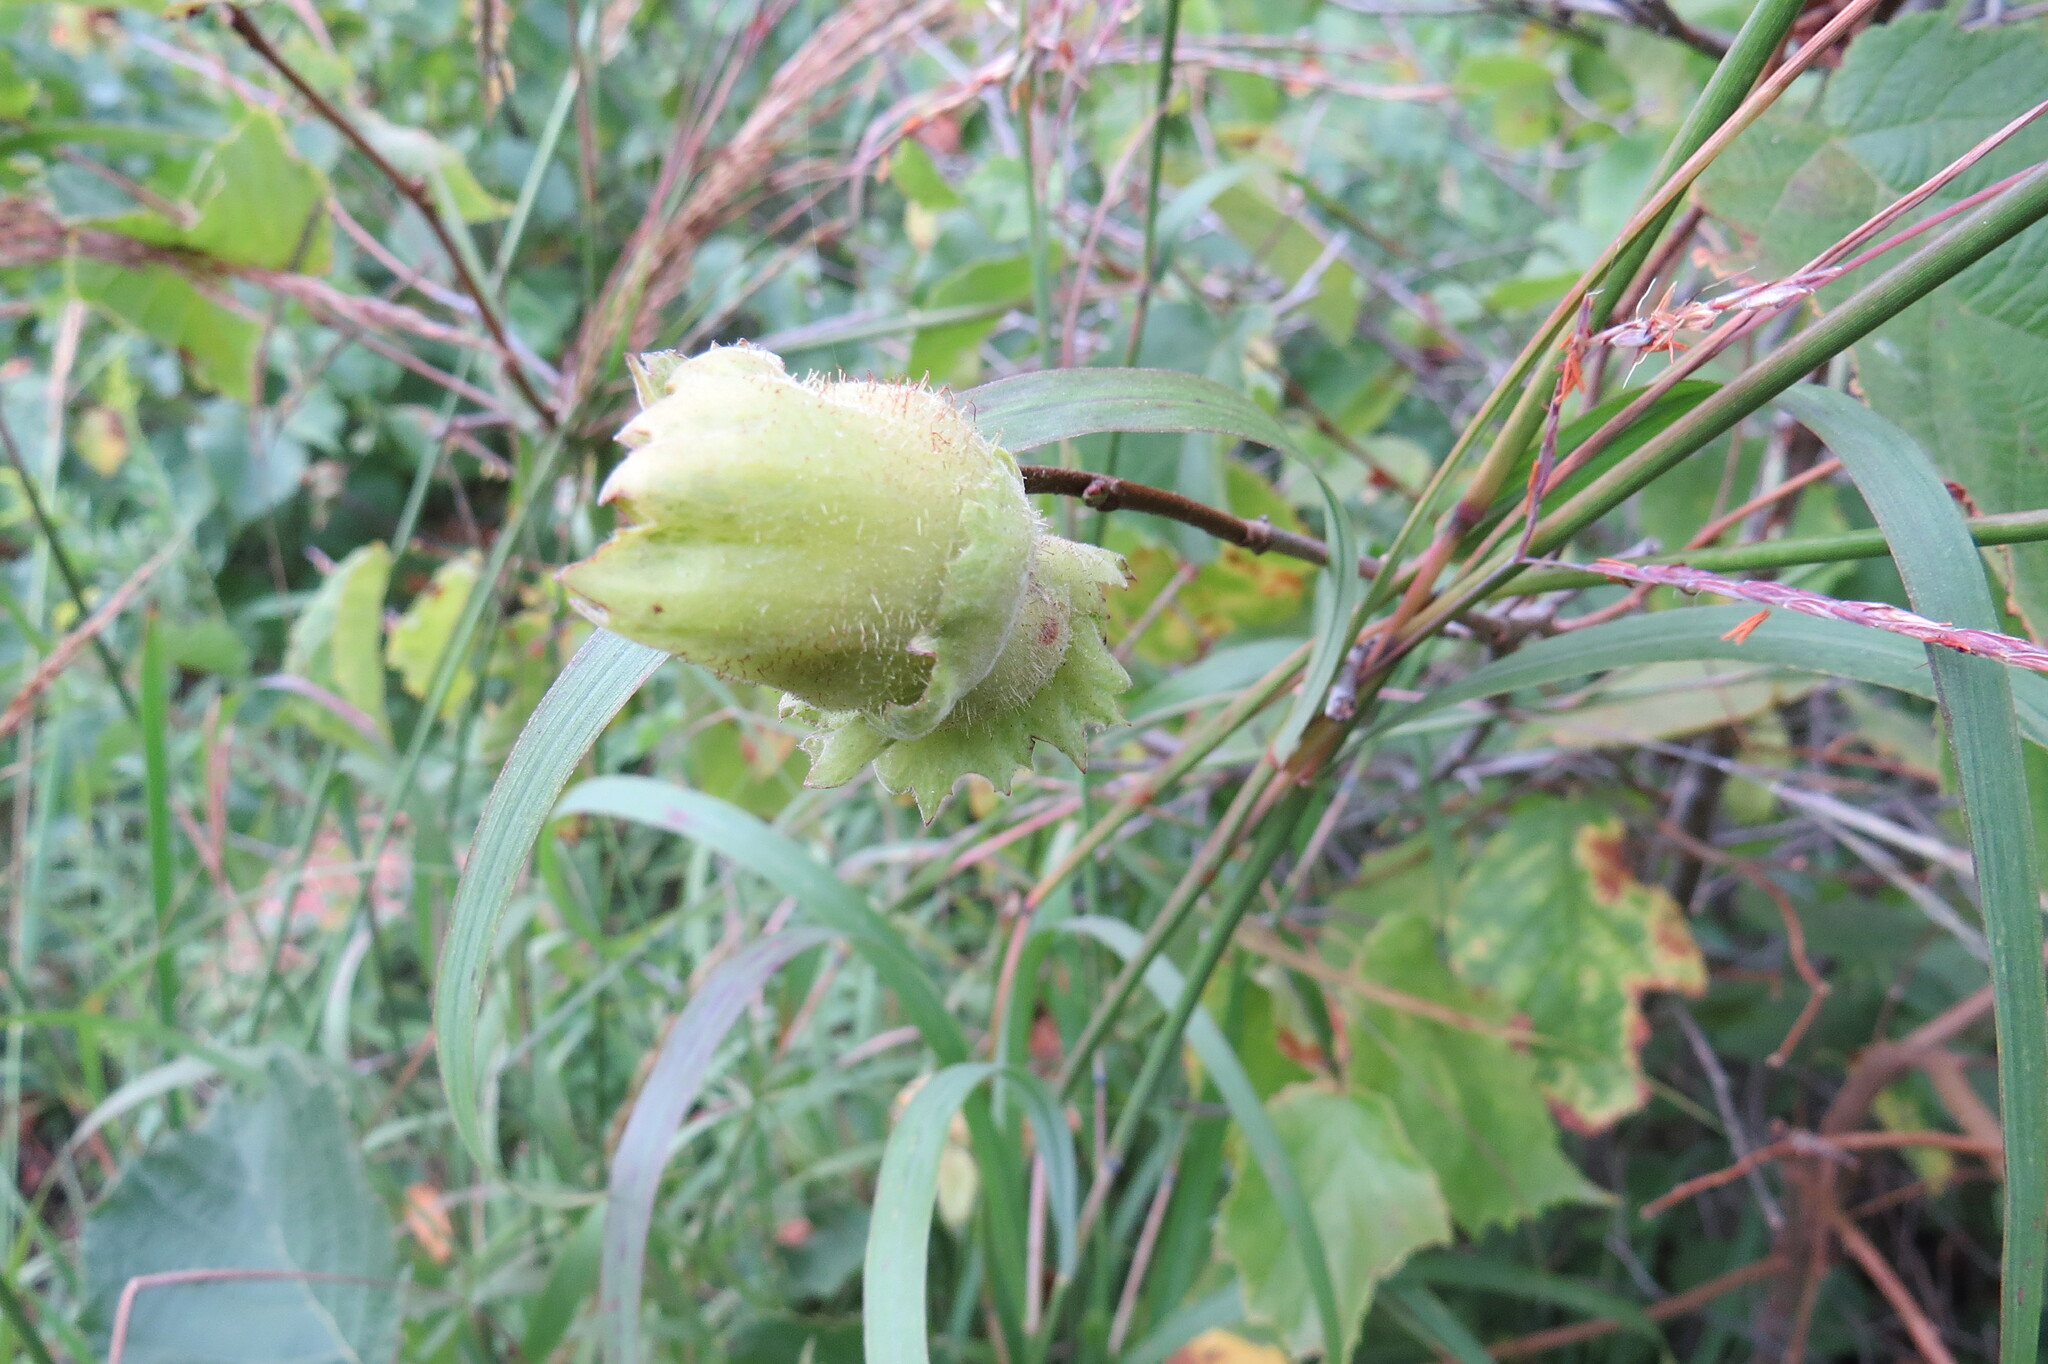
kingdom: Plantae
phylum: Tracheophyta
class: Magnoliopsida
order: Fagales
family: Betulaceae
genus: Corylus
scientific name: Corylus americana
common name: American hazel
